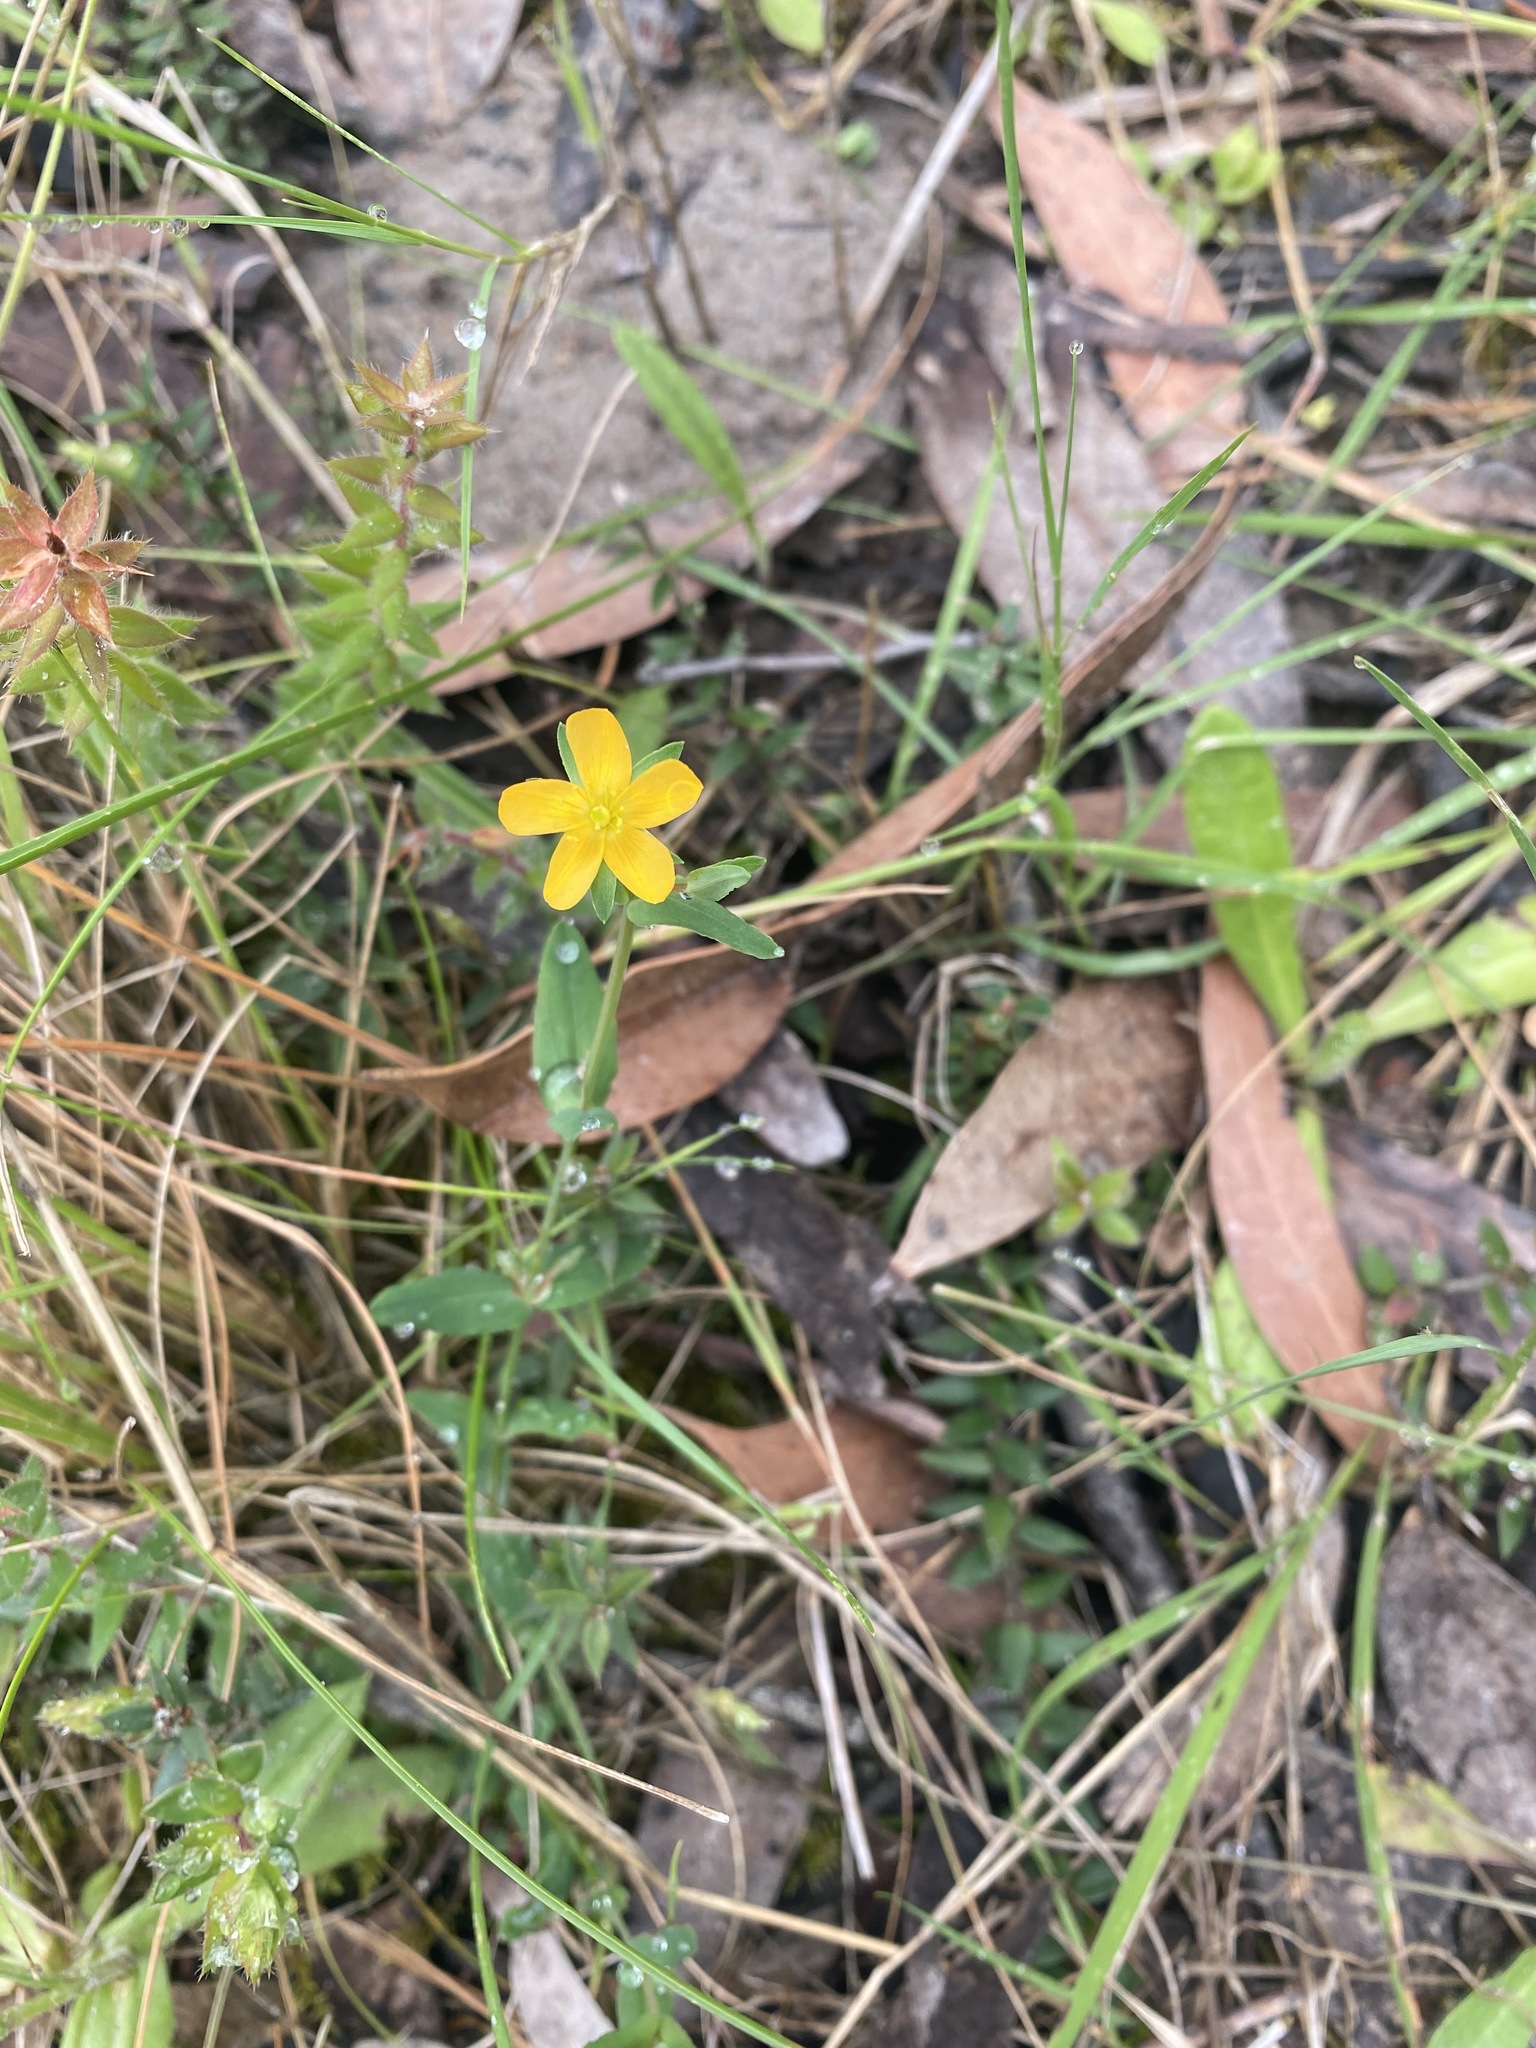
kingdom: Plantae
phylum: Tracheophyta
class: Magnoliopsida
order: Malpighiales
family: Hypericaceae
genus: Hypericum
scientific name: Hypericum gramineum
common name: Grassy st. johnswort
